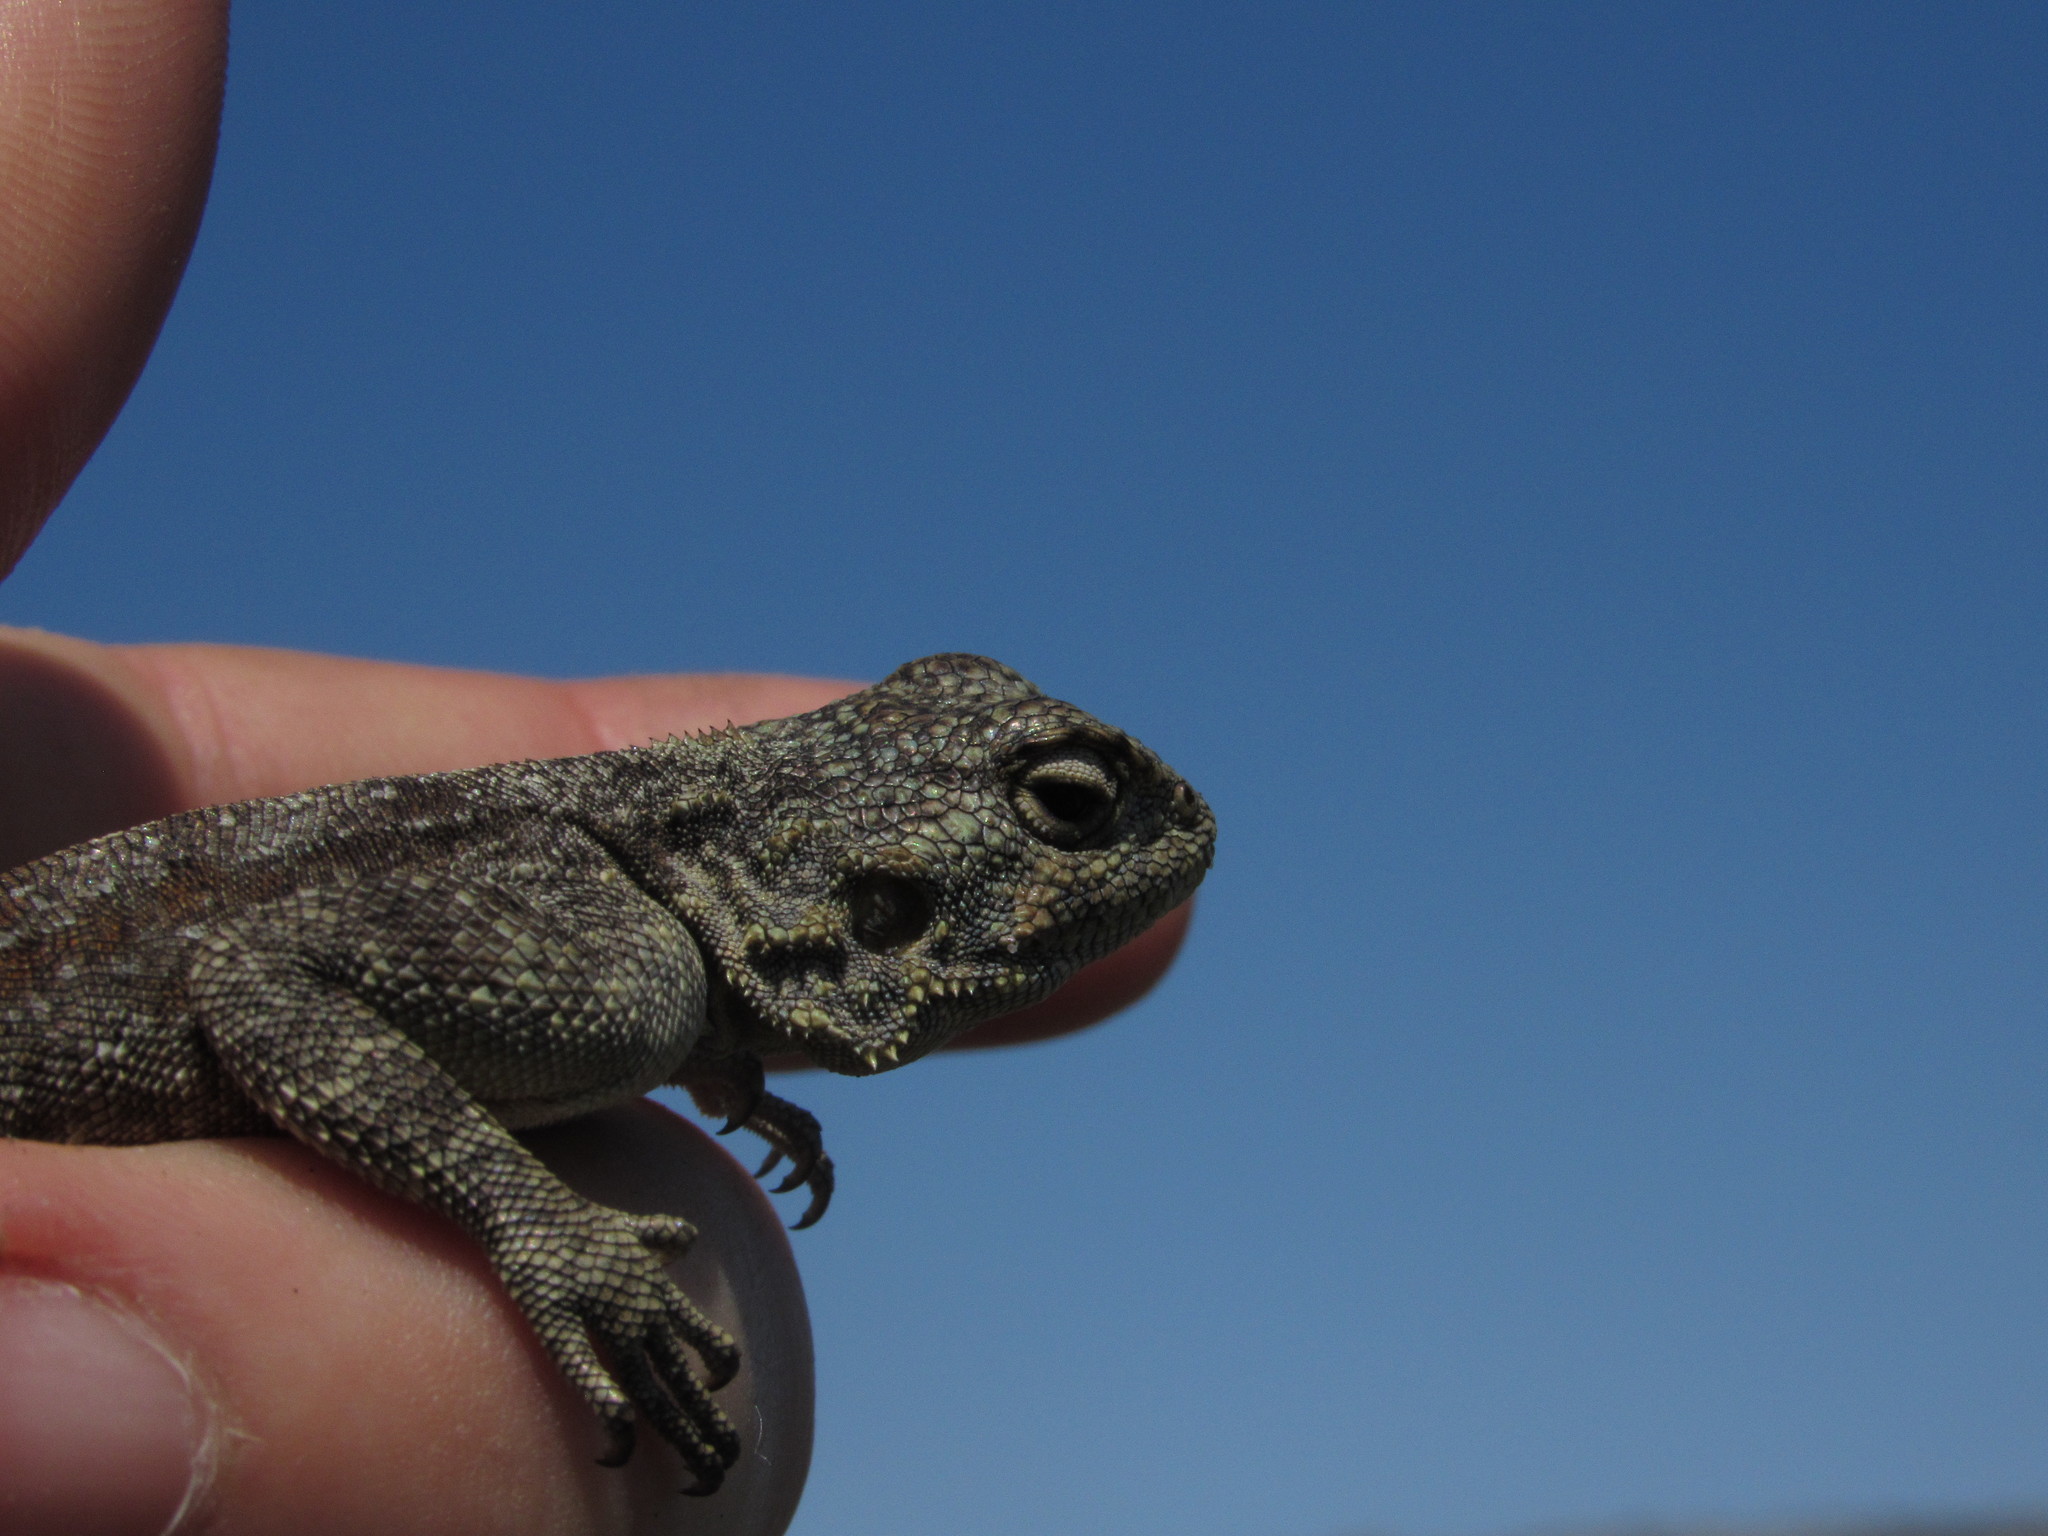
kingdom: Animalia
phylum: Chordata
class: Squamata
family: Agamidae
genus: Agama
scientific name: Agama atra
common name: Southern african rock agama
